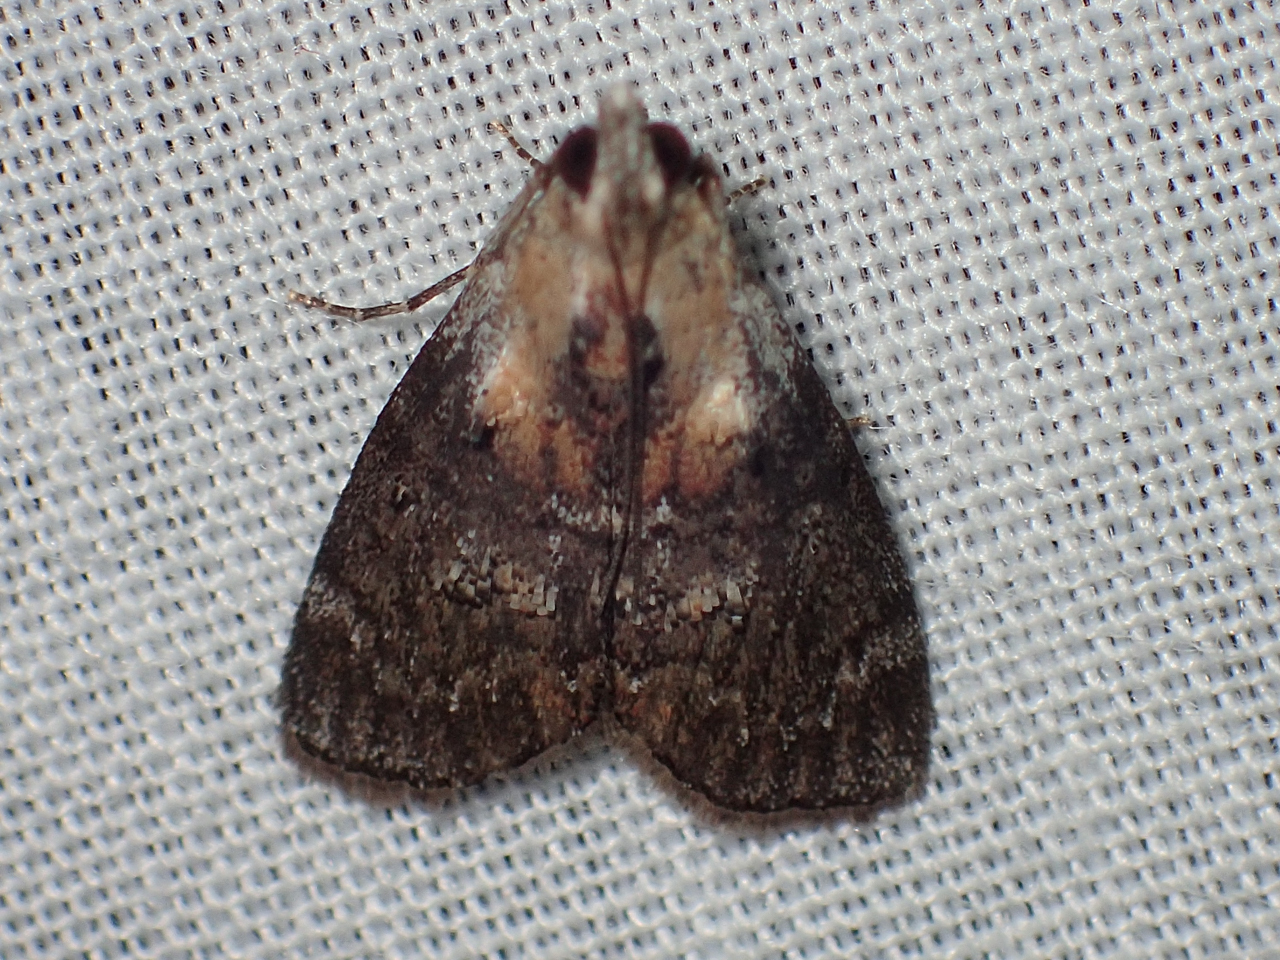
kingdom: Animalia
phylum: Arthropoda
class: Insecta
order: Lepidoptera
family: Pyralidae
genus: Pococera
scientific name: Pococera expandens
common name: Striped oak webworm moth
